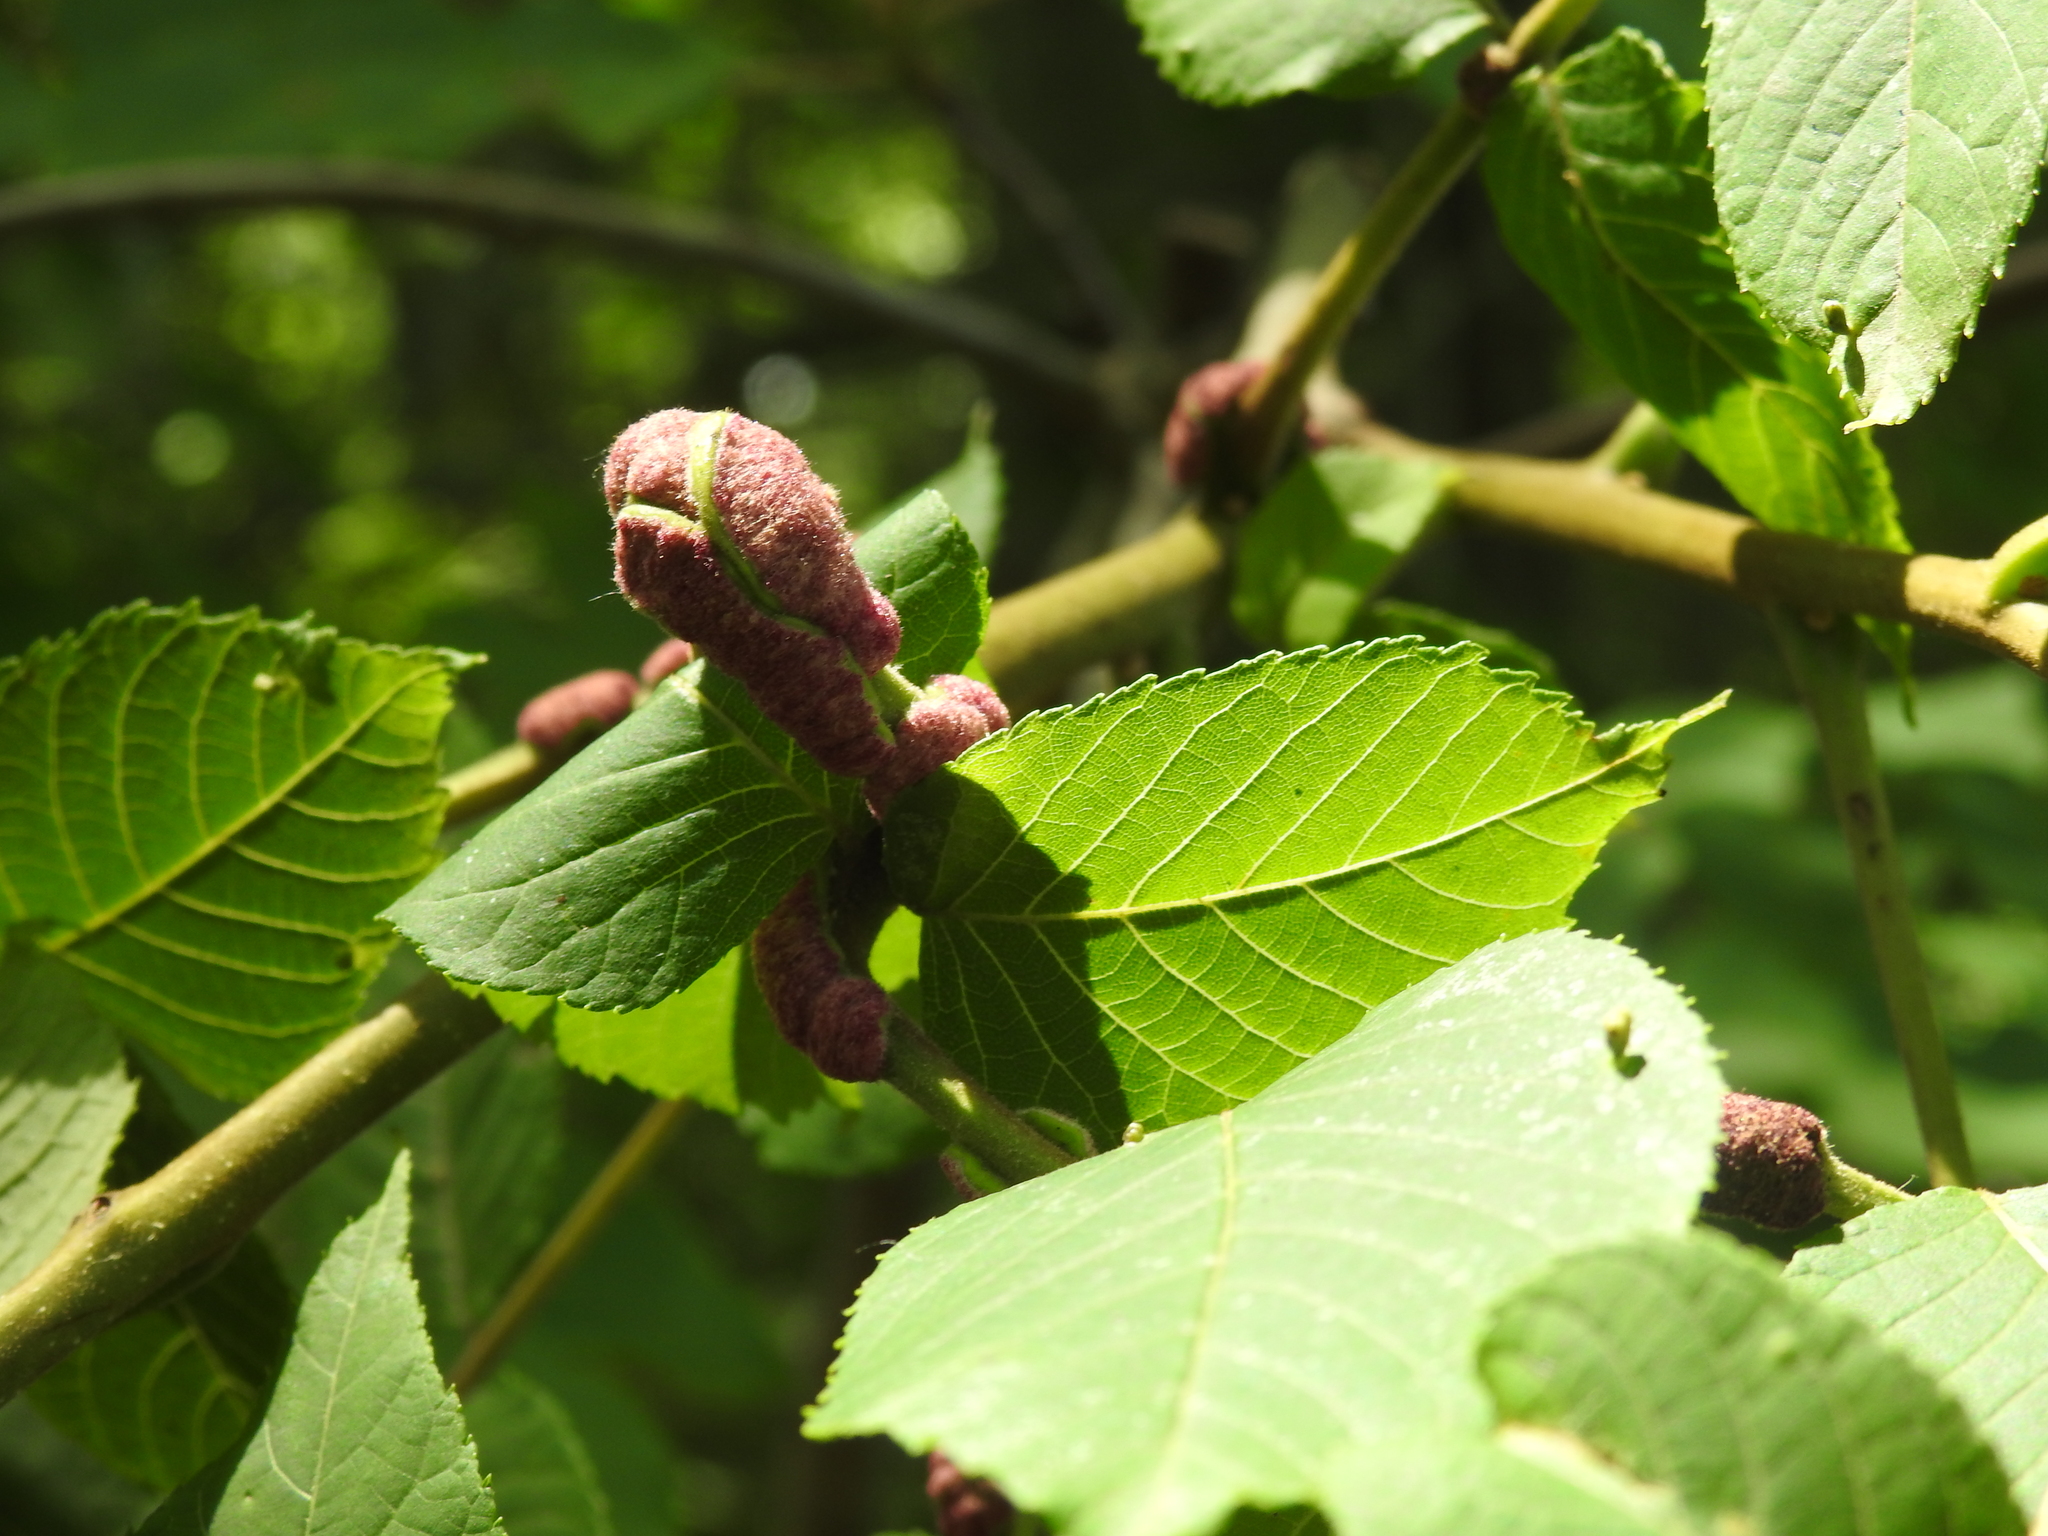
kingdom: Animalia
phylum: Arthropoda
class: Arachnida
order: Trombidiformes
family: Eriophyidae
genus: Aceria
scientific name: Aceria
